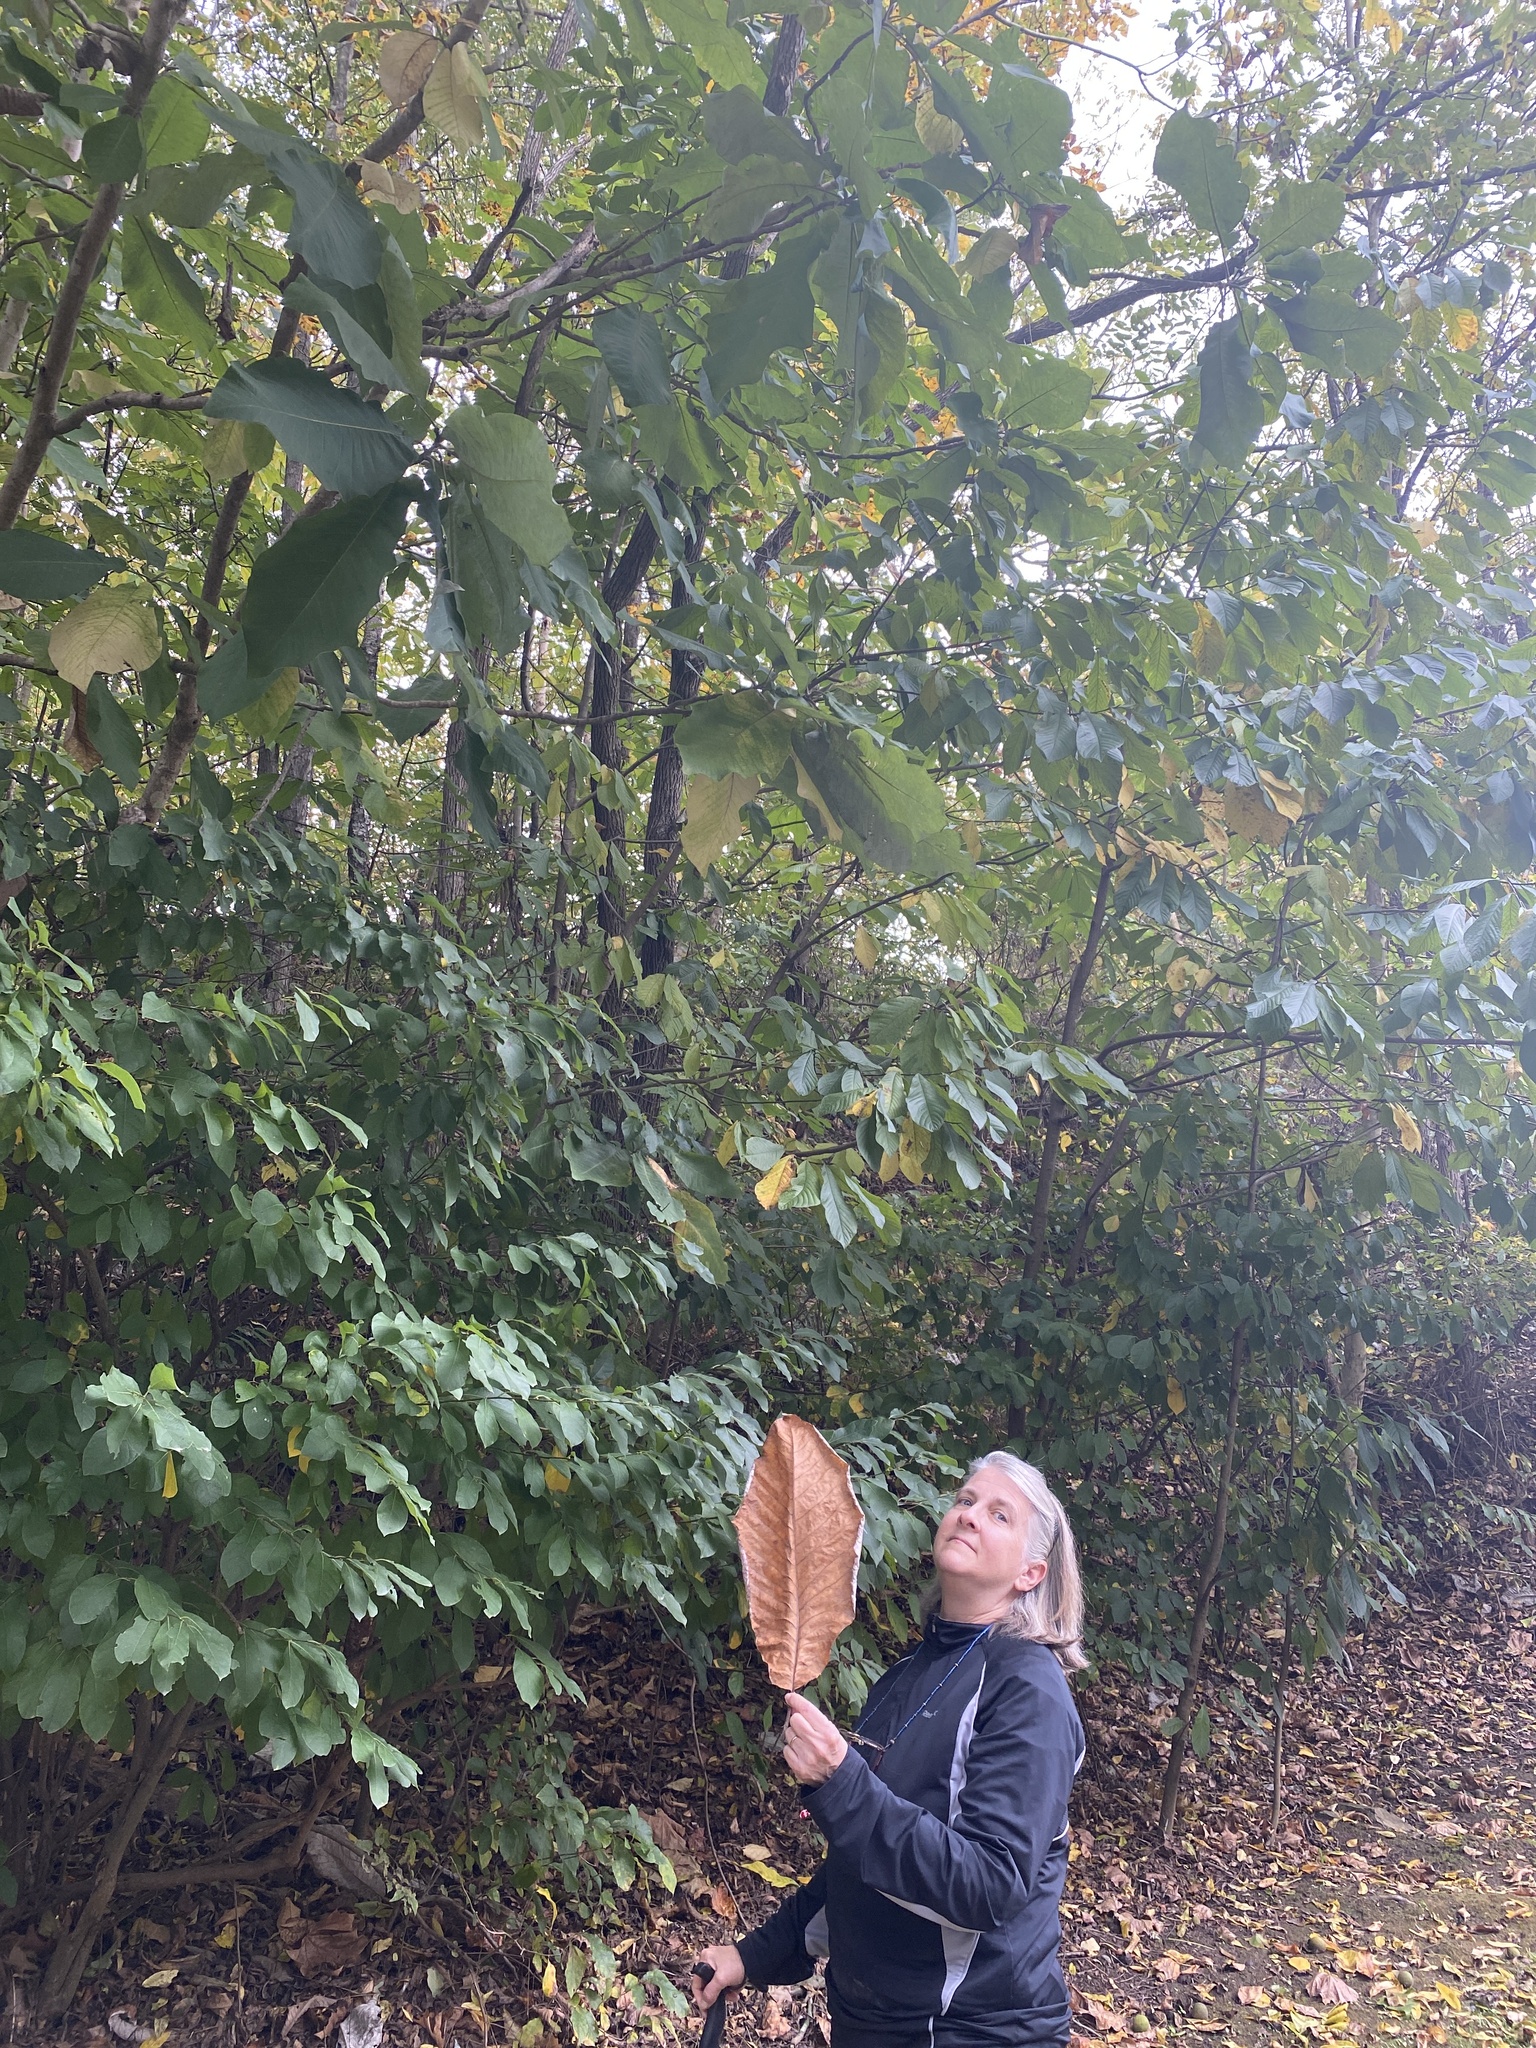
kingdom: Plantae
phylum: Tracheophyta
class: Magnoliopsida
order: Magnoliales
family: Magnoliaceae
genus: Magnolia
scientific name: Magnolia macrophylla
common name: Big-leaf magnolia
